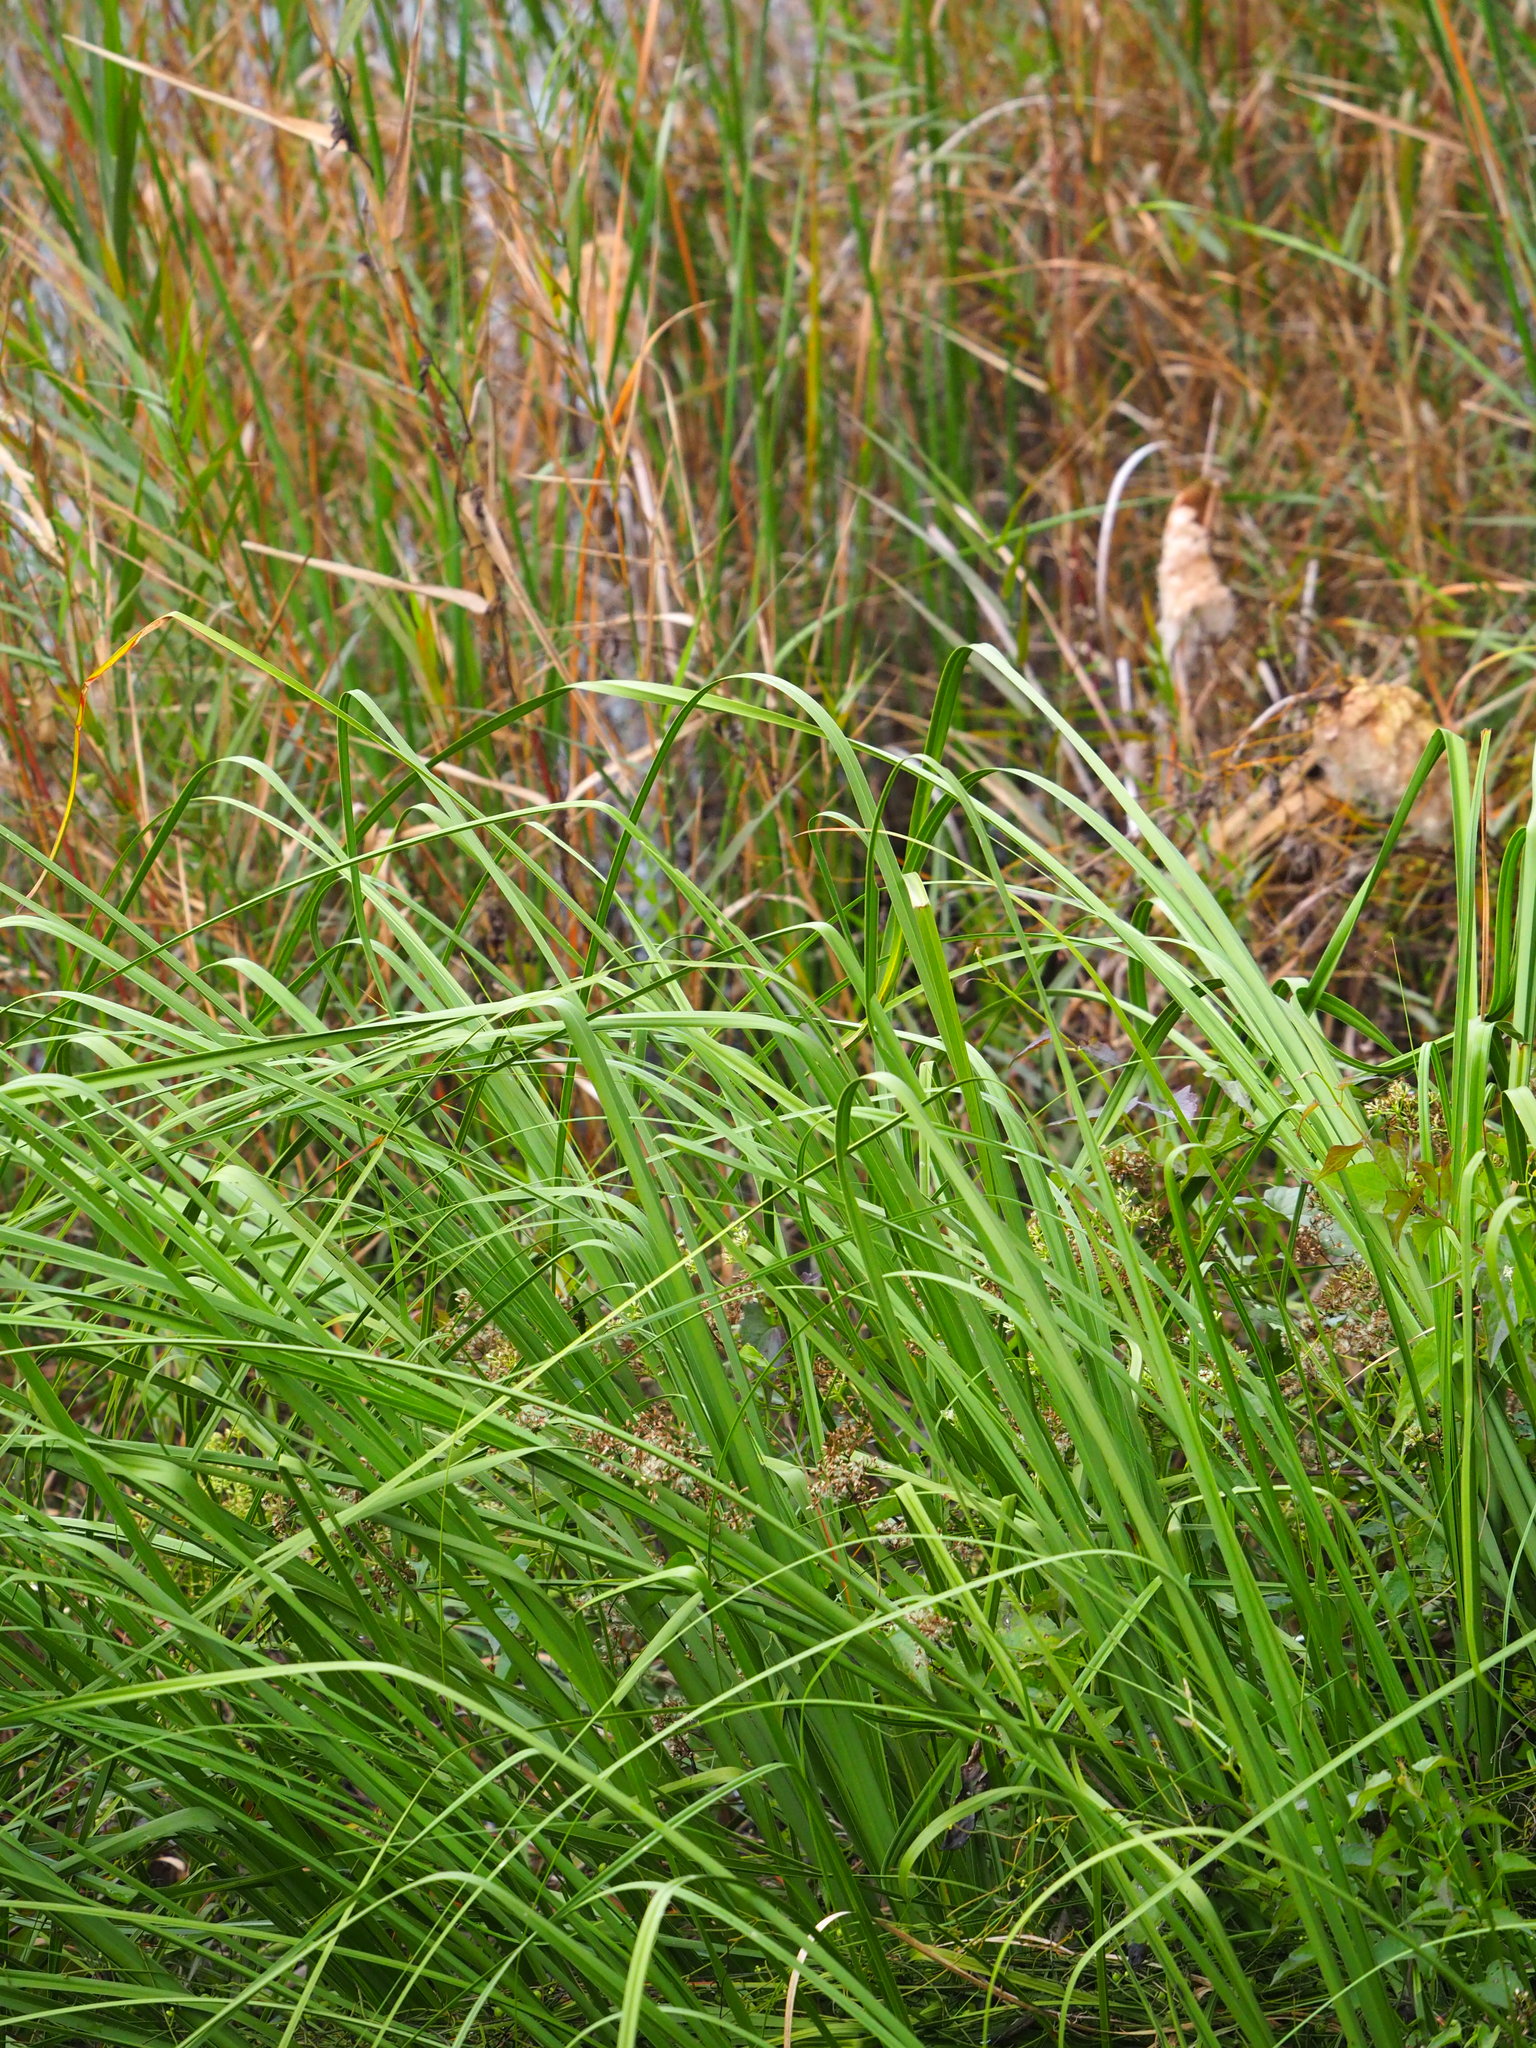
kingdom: Plantae
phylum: Tracheophyta
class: Liliopsida
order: Poales
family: Cyperaceae
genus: Cladium
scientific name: Cladium mariscus
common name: Great fen-sedge
